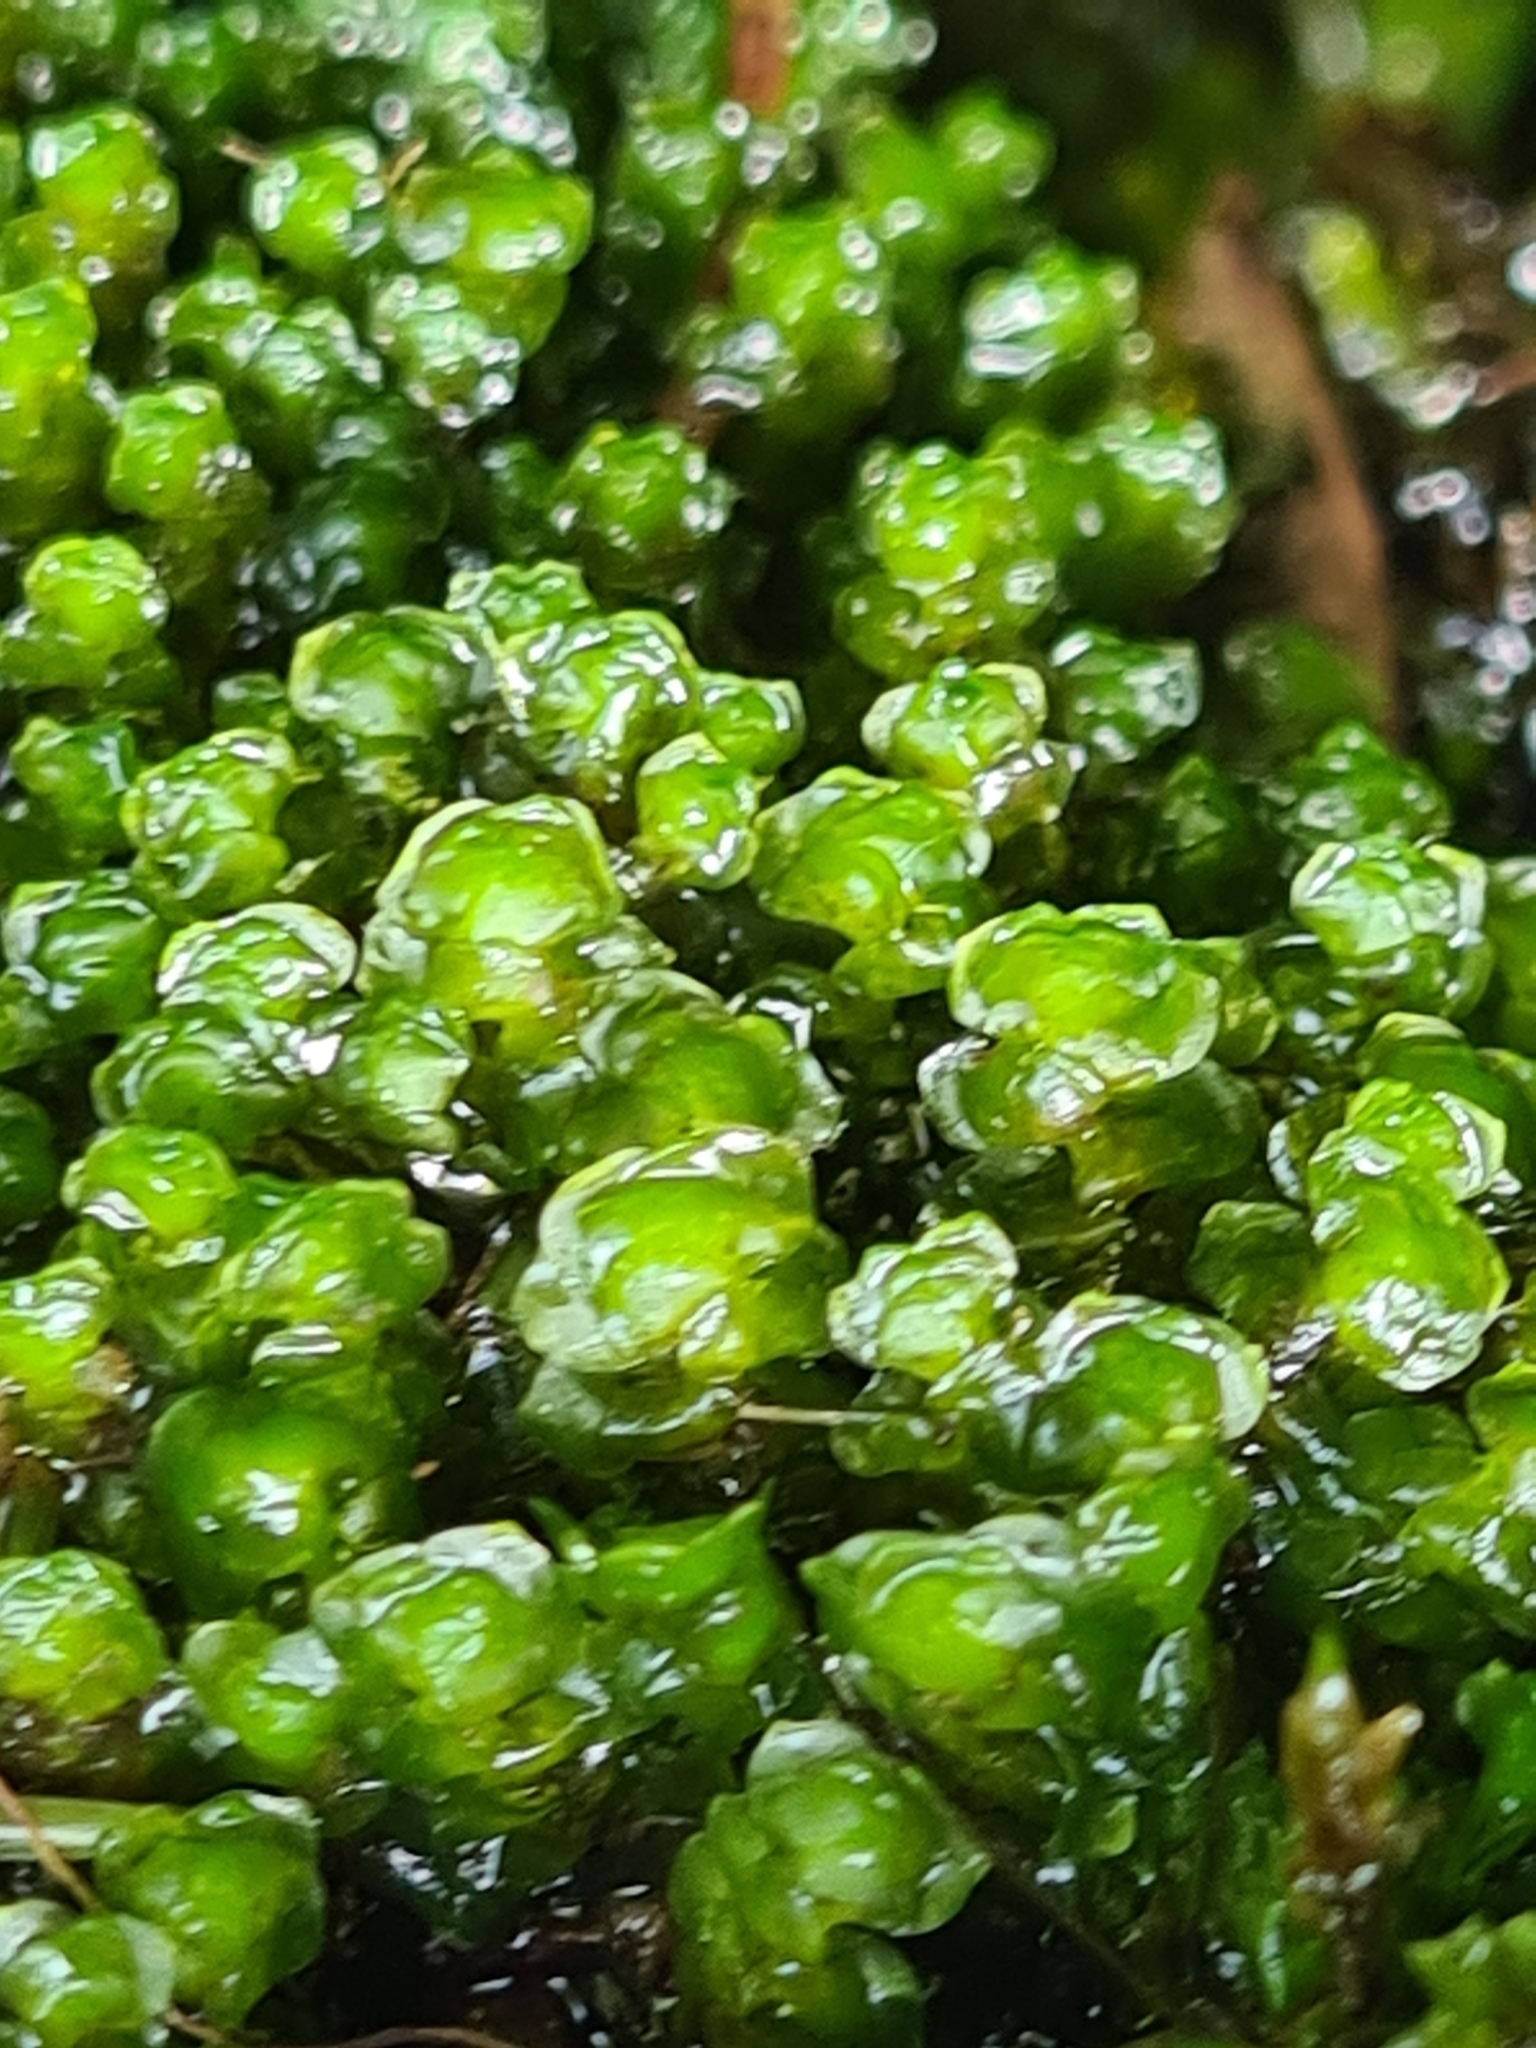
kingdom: Plantae
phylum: Marchantiophyta
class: Jungermanniopsida
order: Jungermanniales
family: Scapaniaceae
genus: Scapania
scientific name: Scapania undulata
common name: Water earwort
